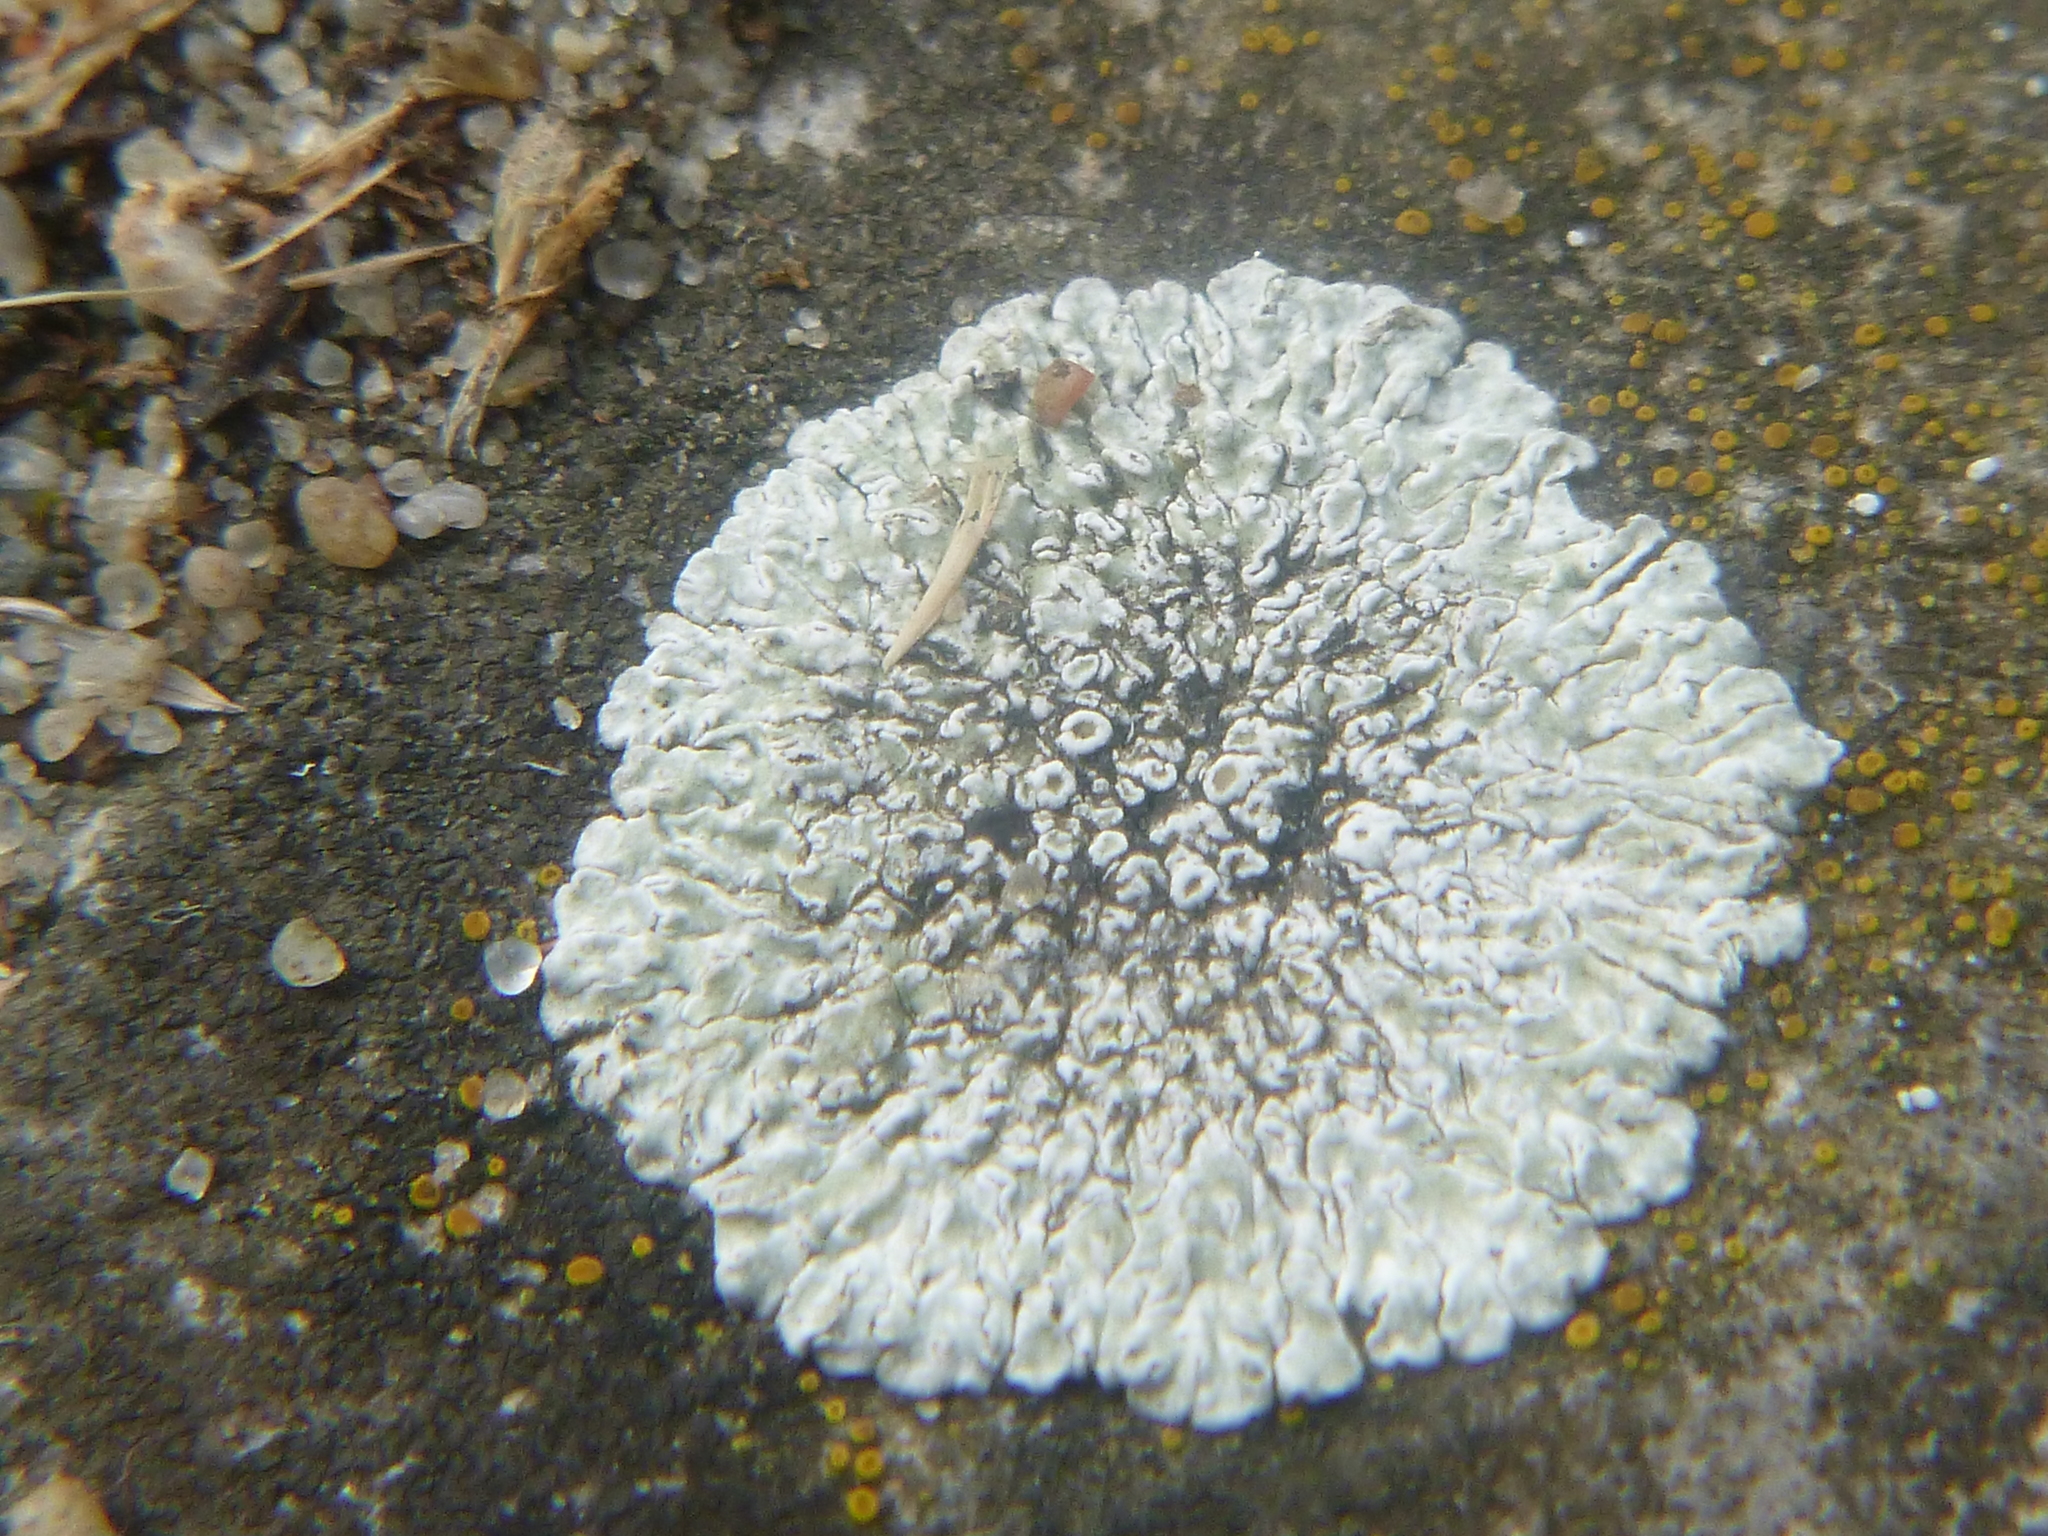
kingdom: Fungi
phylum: Ascomycota
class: Lecanoromycetes
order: Lecanorales
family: Lecanoraceae
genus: Protoparmeliopsis
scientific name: Protoparmeliopsis muralis
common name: Stonewall rim lichen
